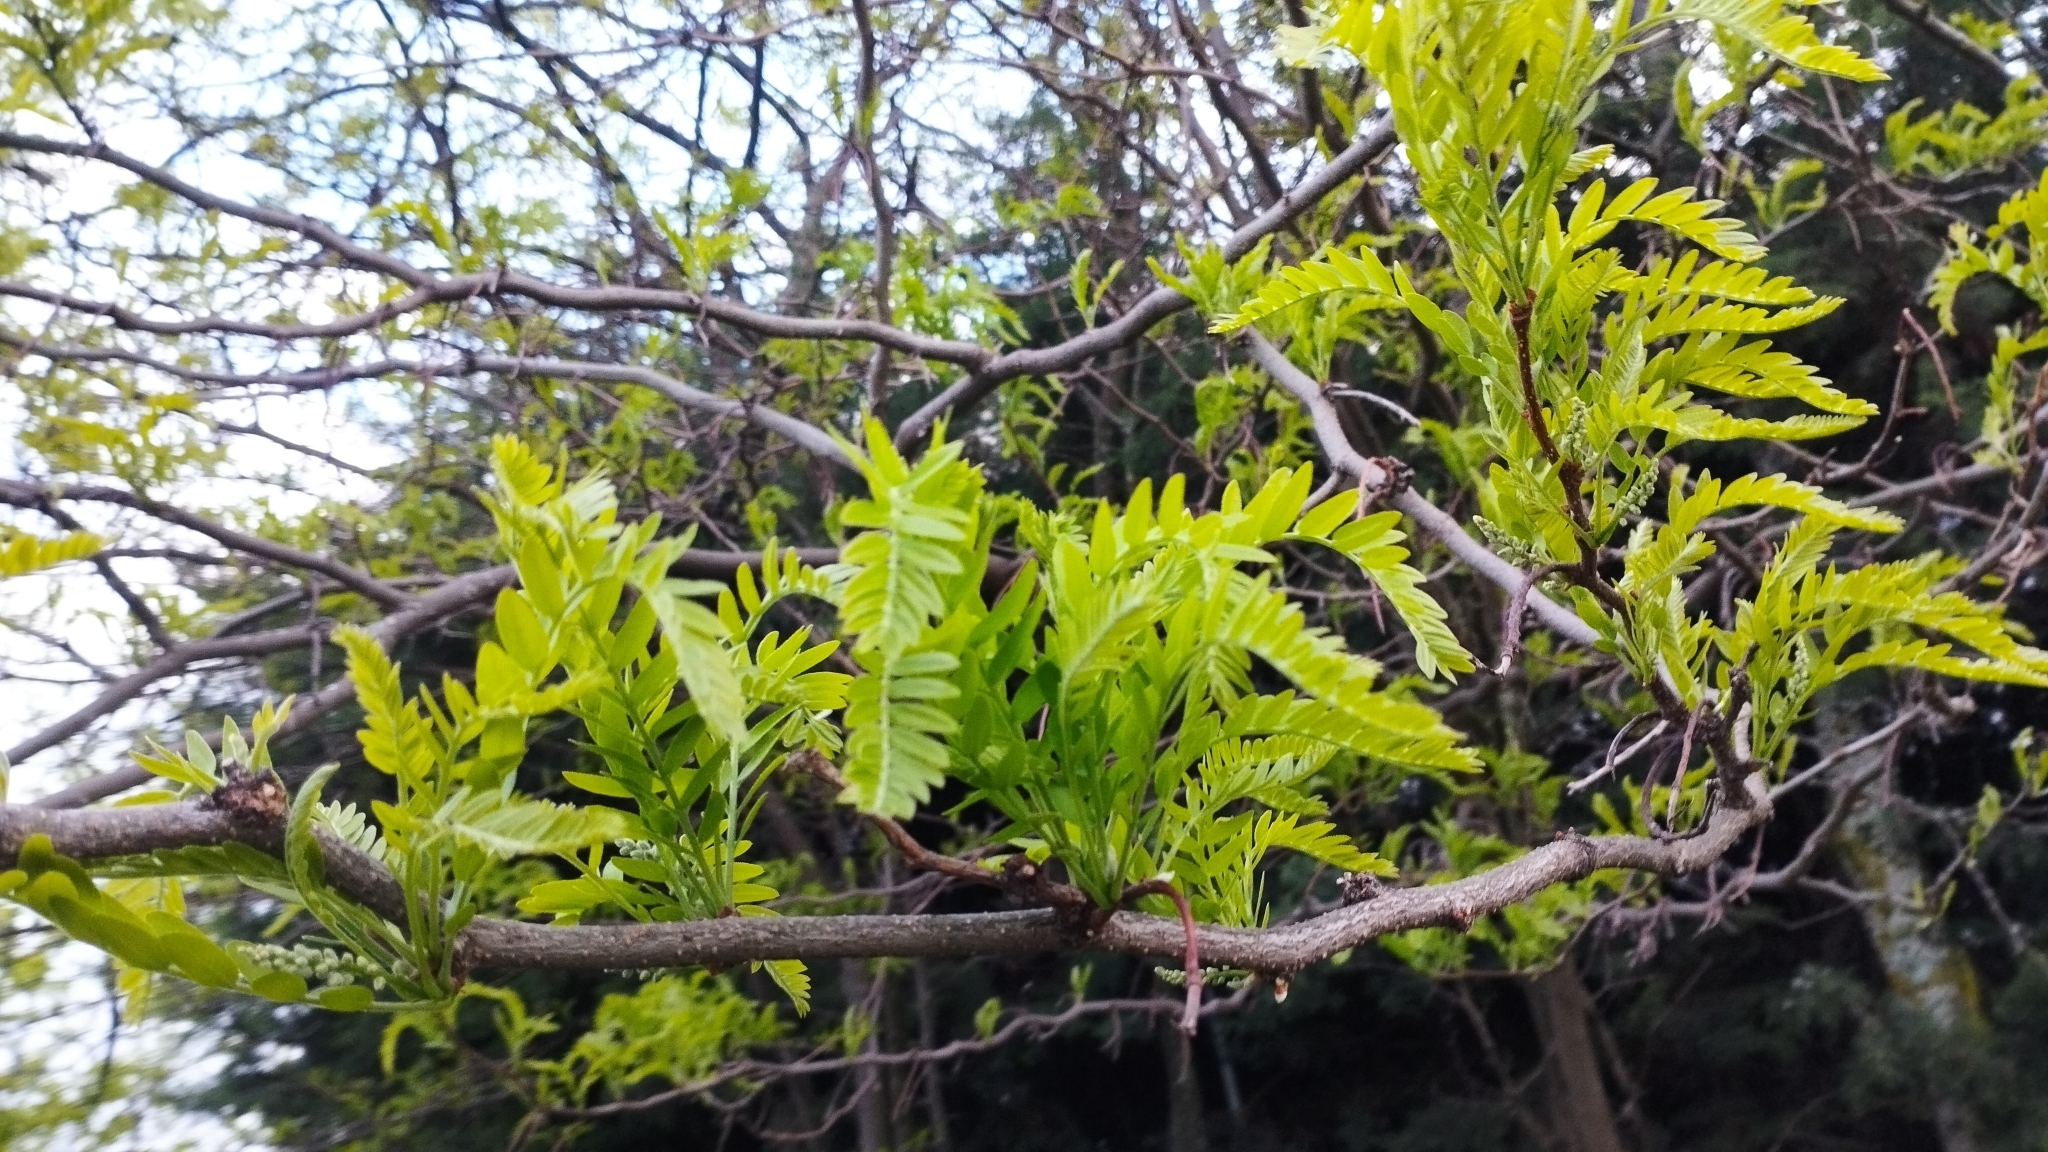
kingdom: Plantae
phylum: Tracheophyta
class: Magnoliopsida
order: Fabales
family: Fabaceae
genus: Gleditsia
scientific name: Gleditsia triacanthos
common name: Common honeylocust
